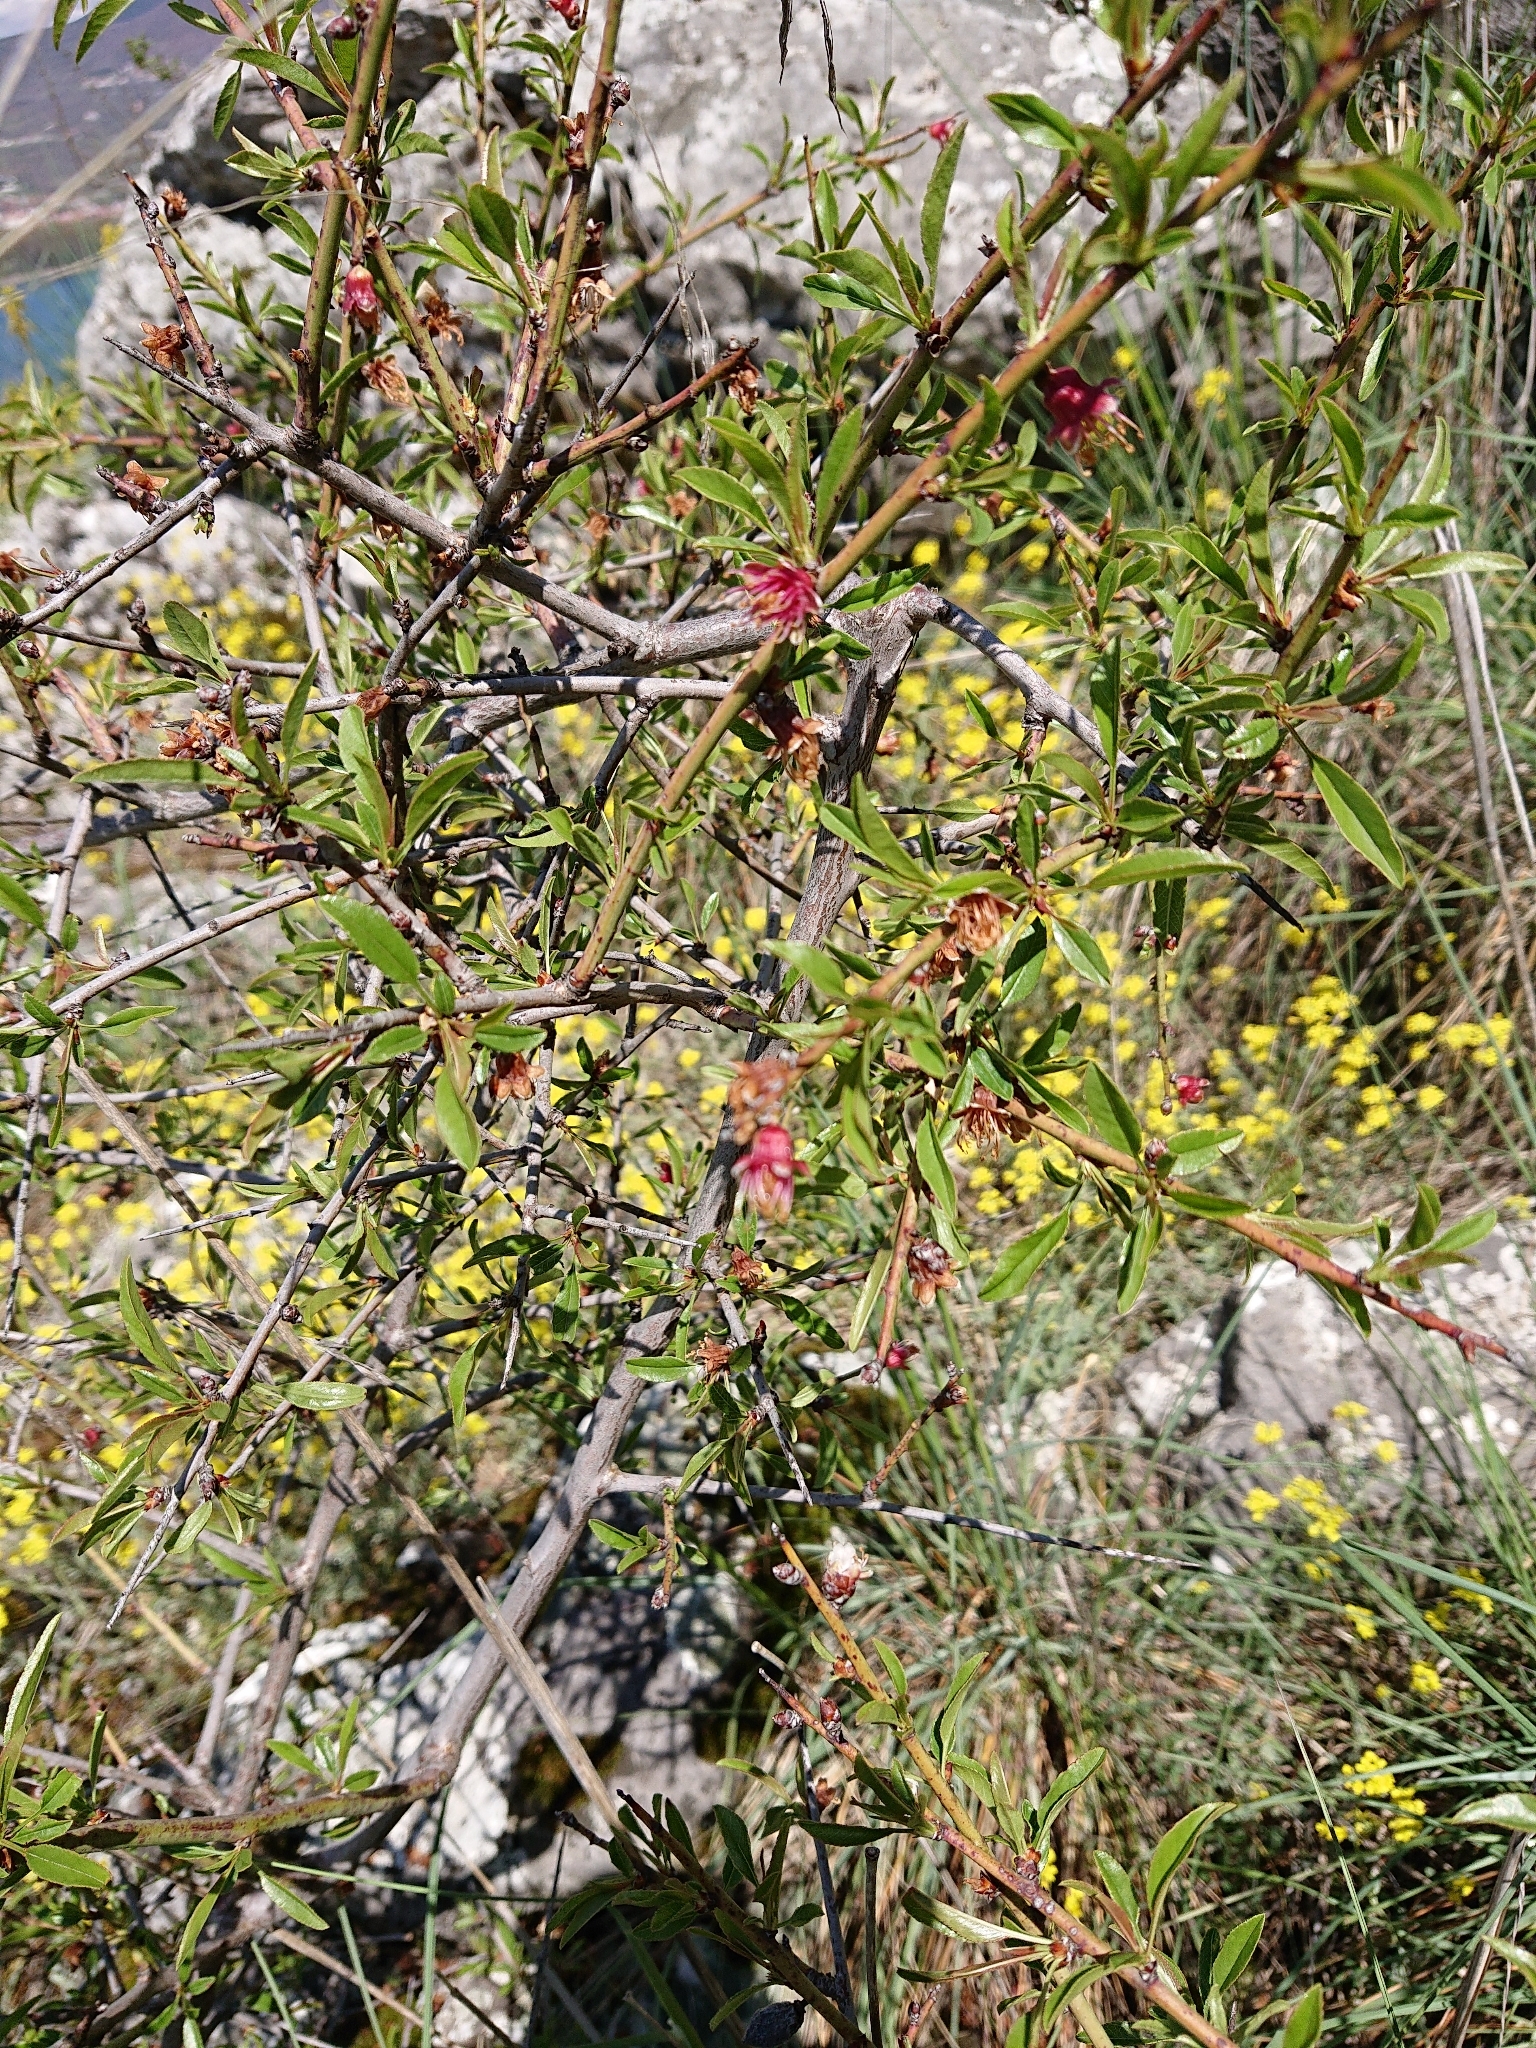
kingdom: Plantae
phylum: Tracheophyta
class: Magnoliopsida
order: Rosales
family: Rosaceae
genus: Prunus
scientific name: Prunus webbii
